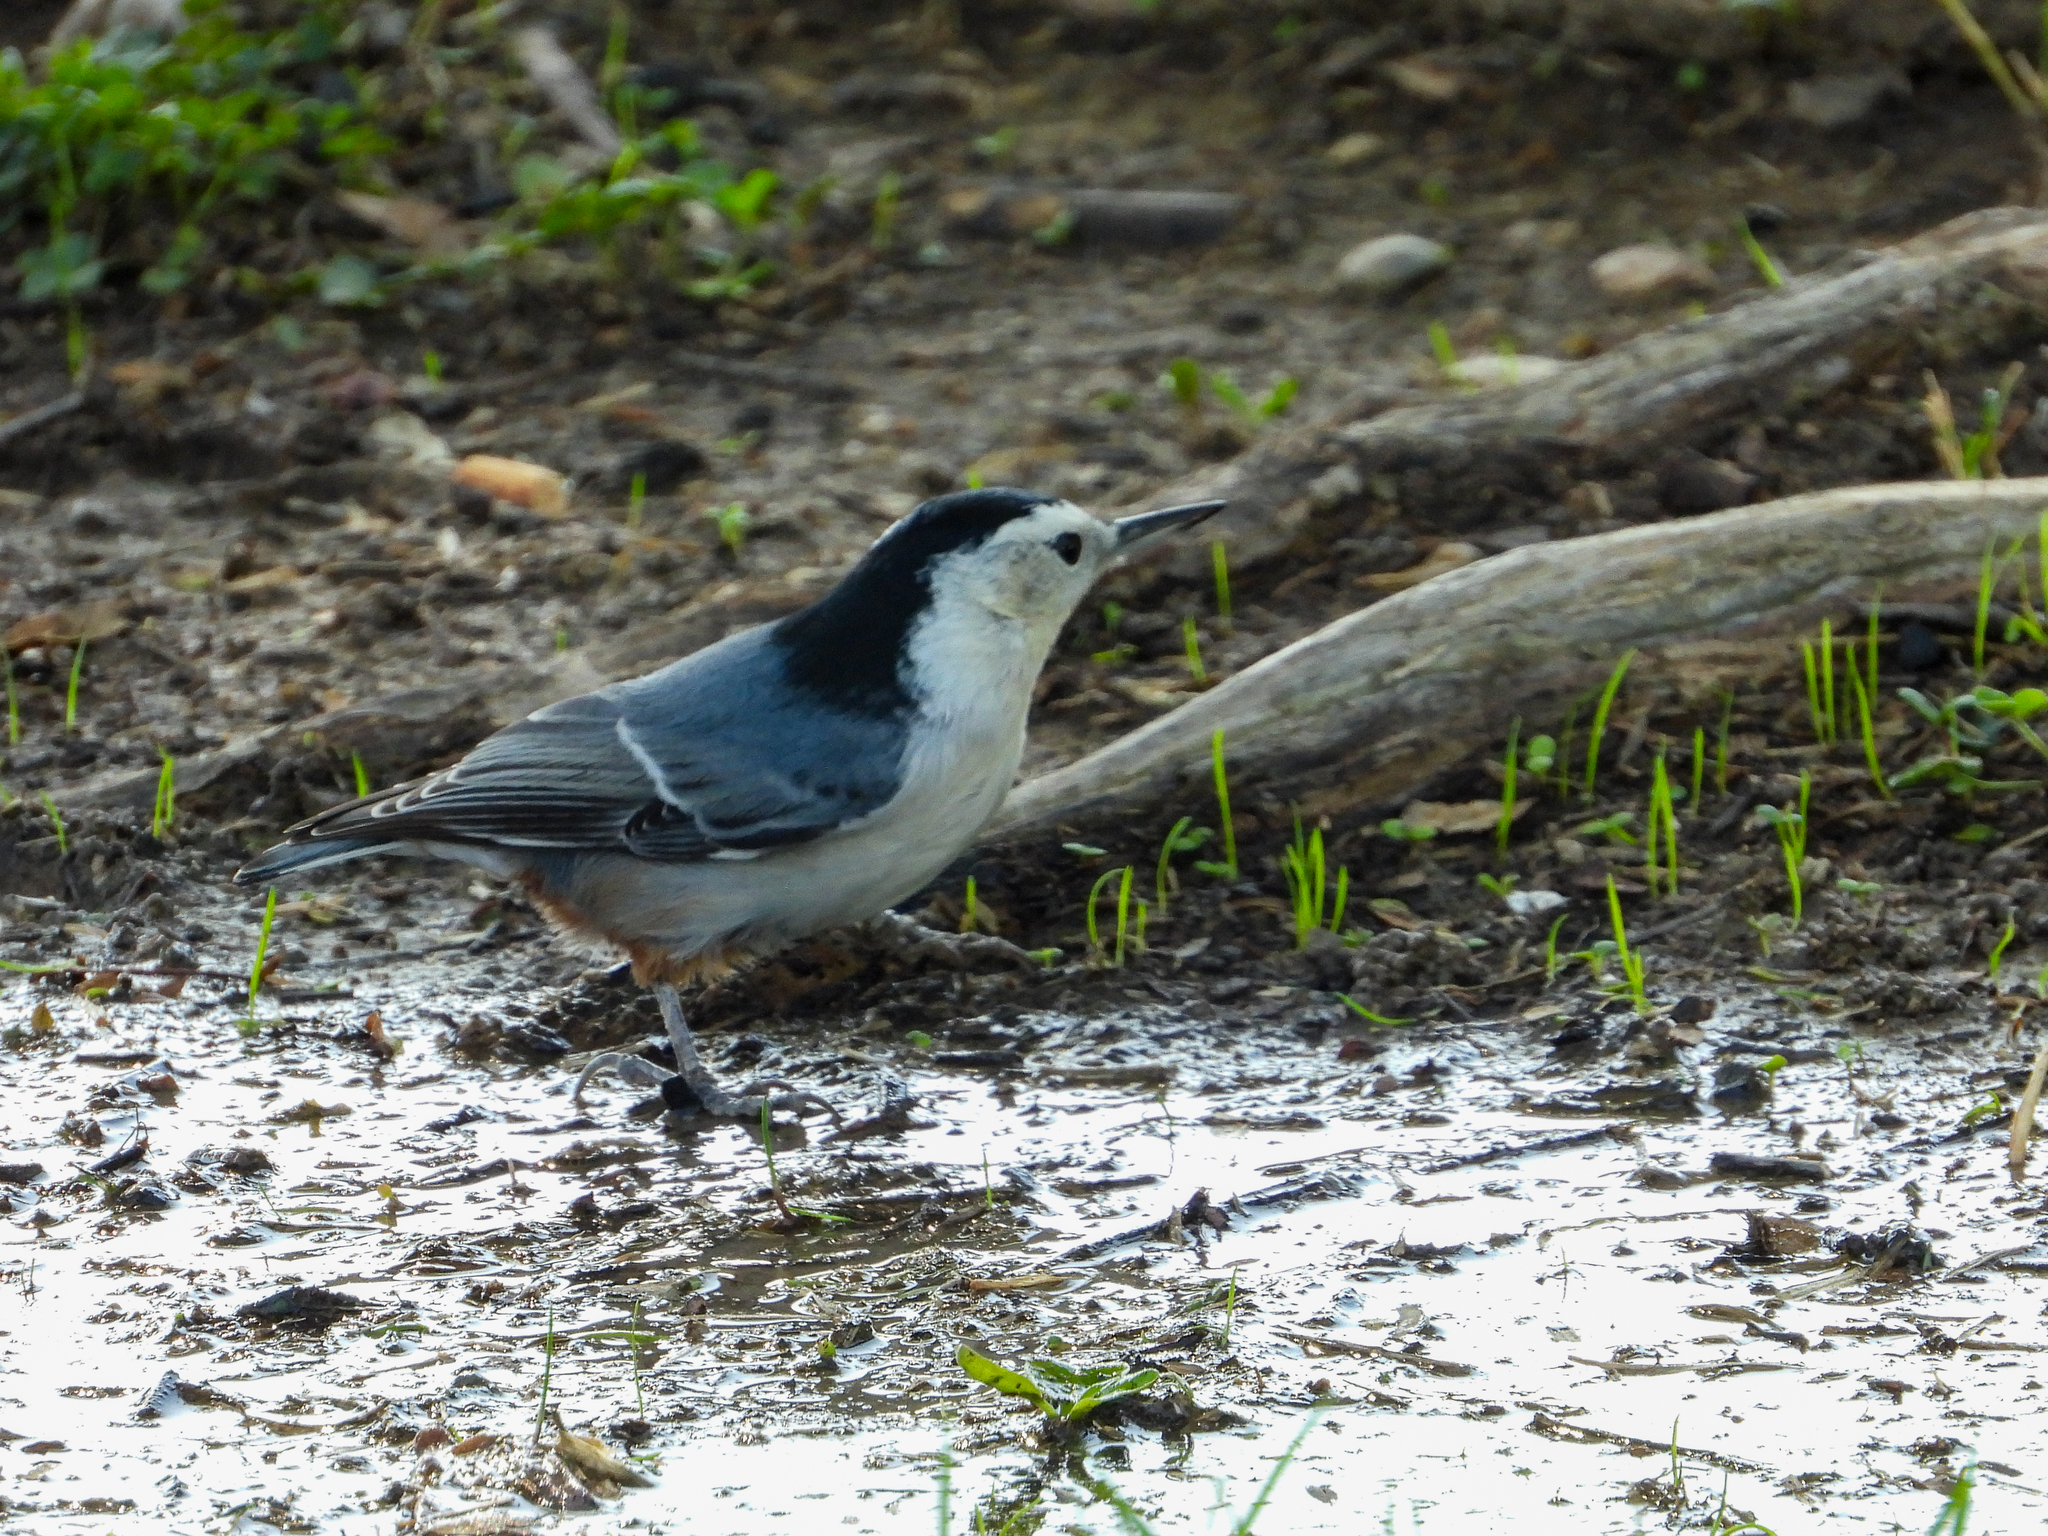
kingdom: Animalia
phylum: Chordata
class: Aves
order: Passeriformes
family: Sittidae
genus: Sitta
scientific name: Sitta carolinensis
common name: White-breasted nuthatch
